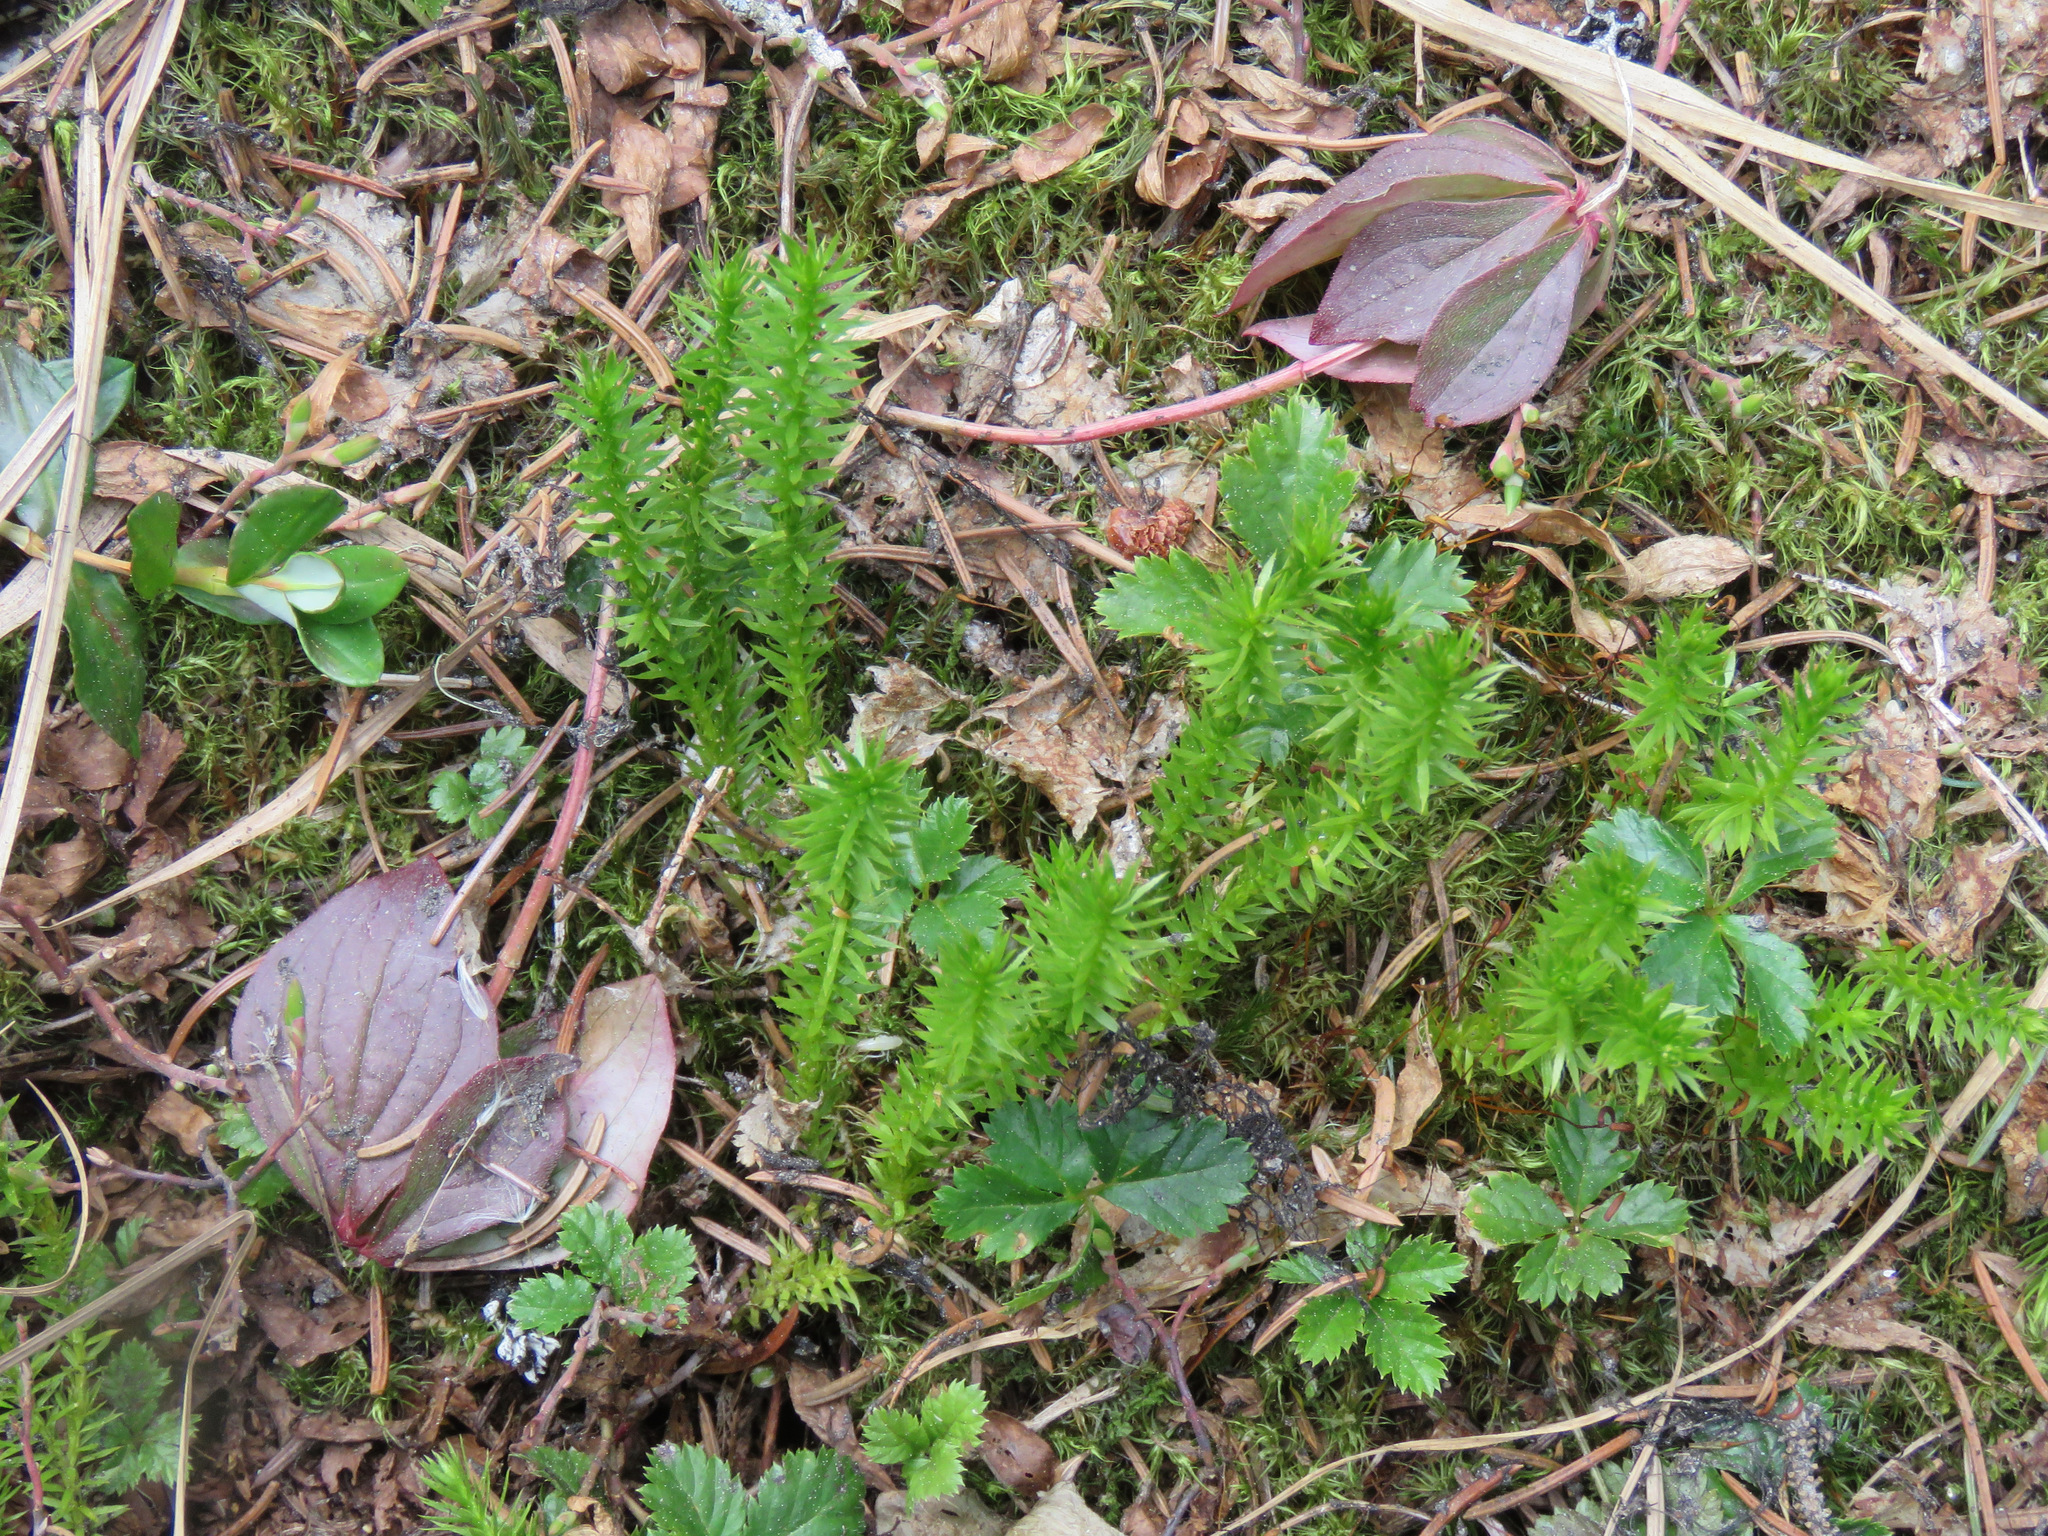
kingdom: Plantae
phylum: Tracheophyta
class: Lycopodiopsida
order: Lycopodiales
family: Lycopodiaceae
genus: Spinulum
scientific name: Spinulum annotinum
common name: Interrupted club-moss
